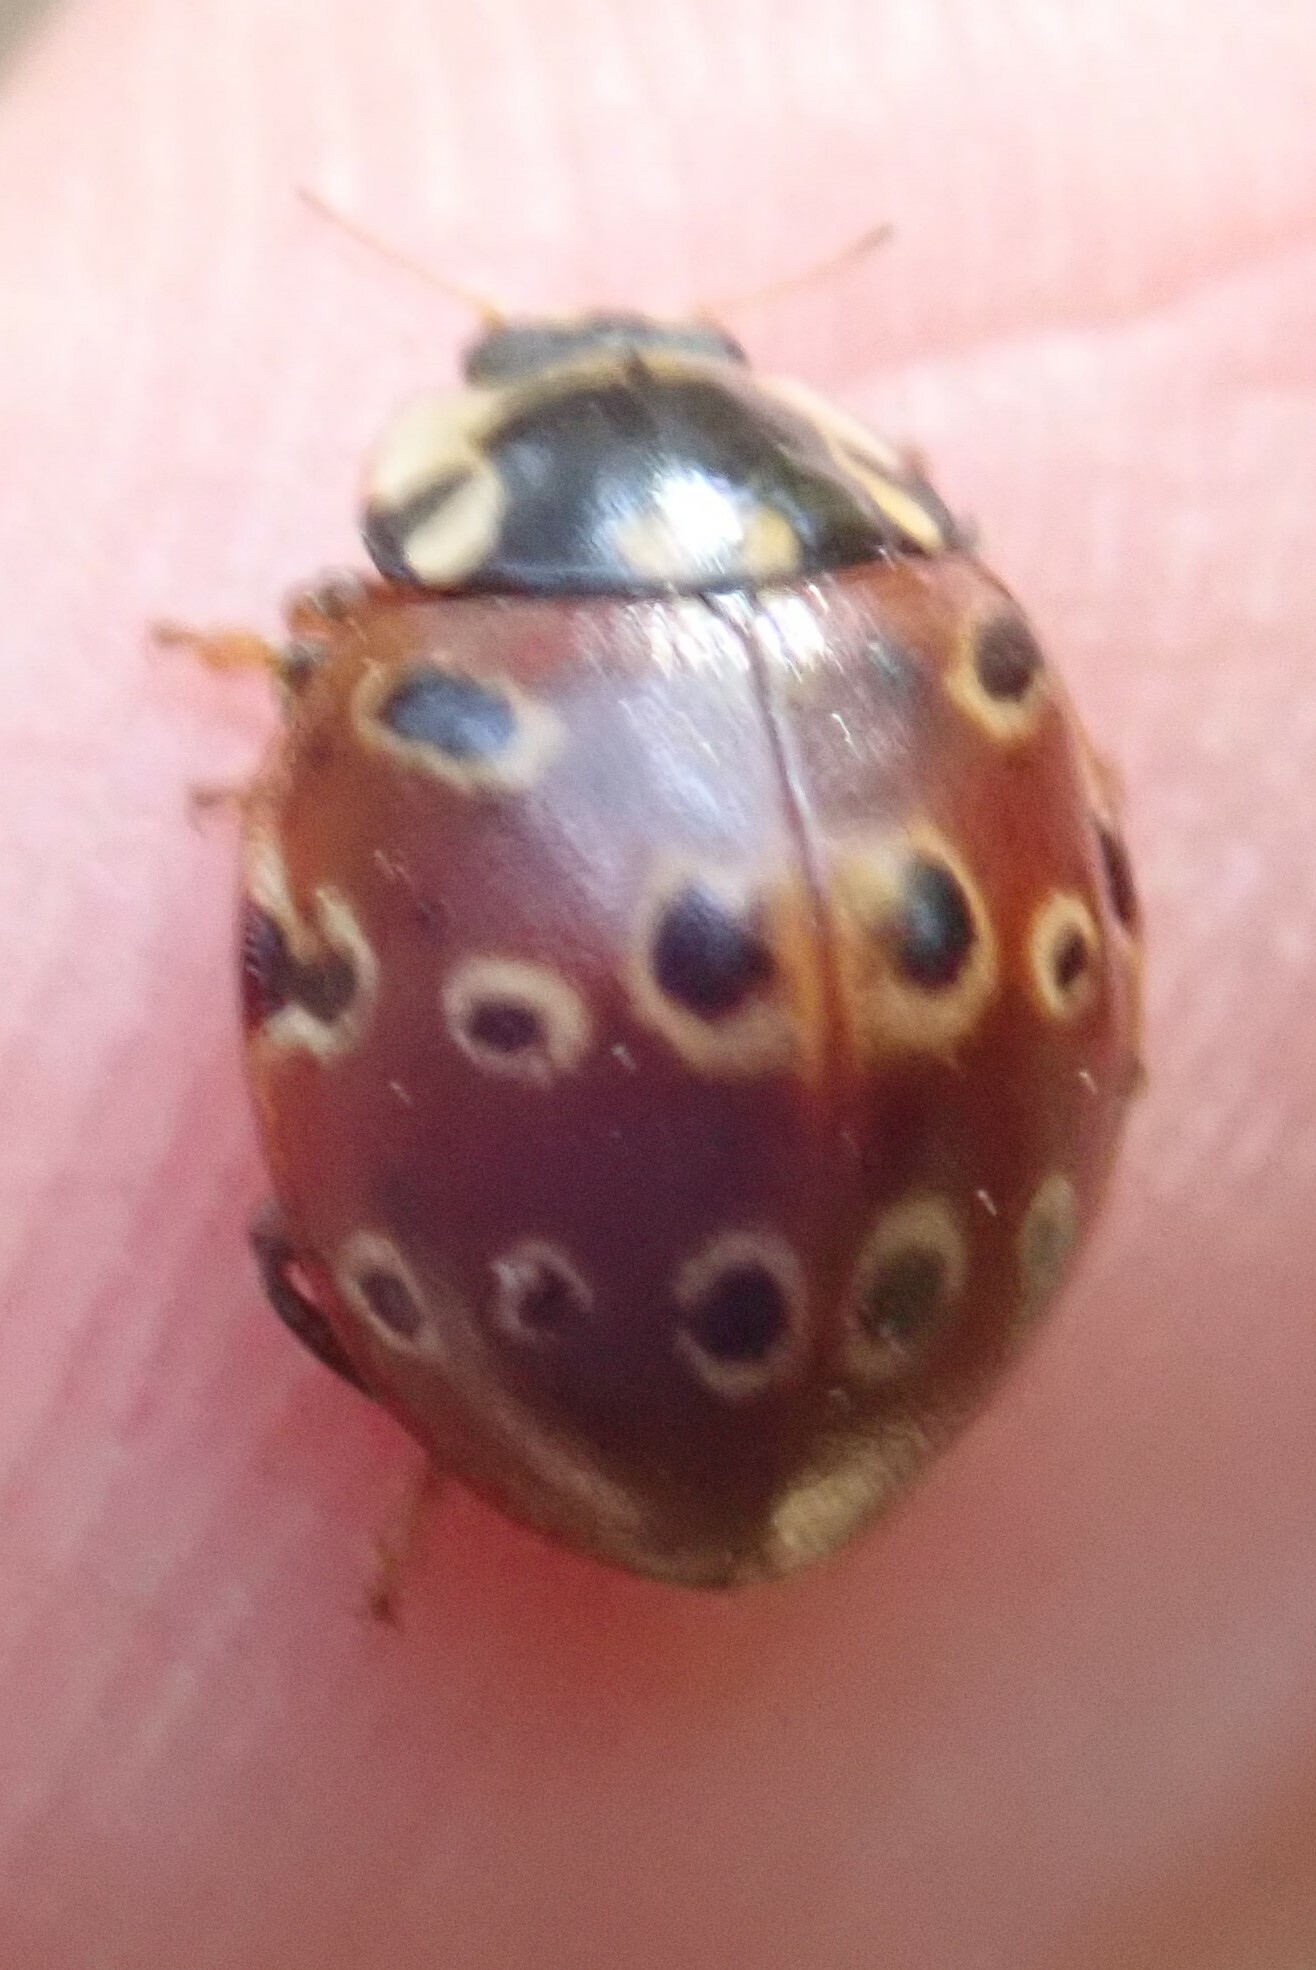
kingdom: Animalia
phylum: Arthropoda
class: Insecta
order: Coleoptera
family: Coccinellidae
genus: Anatis
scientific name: Anatis mali
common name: Eye-spotted lady beetle
